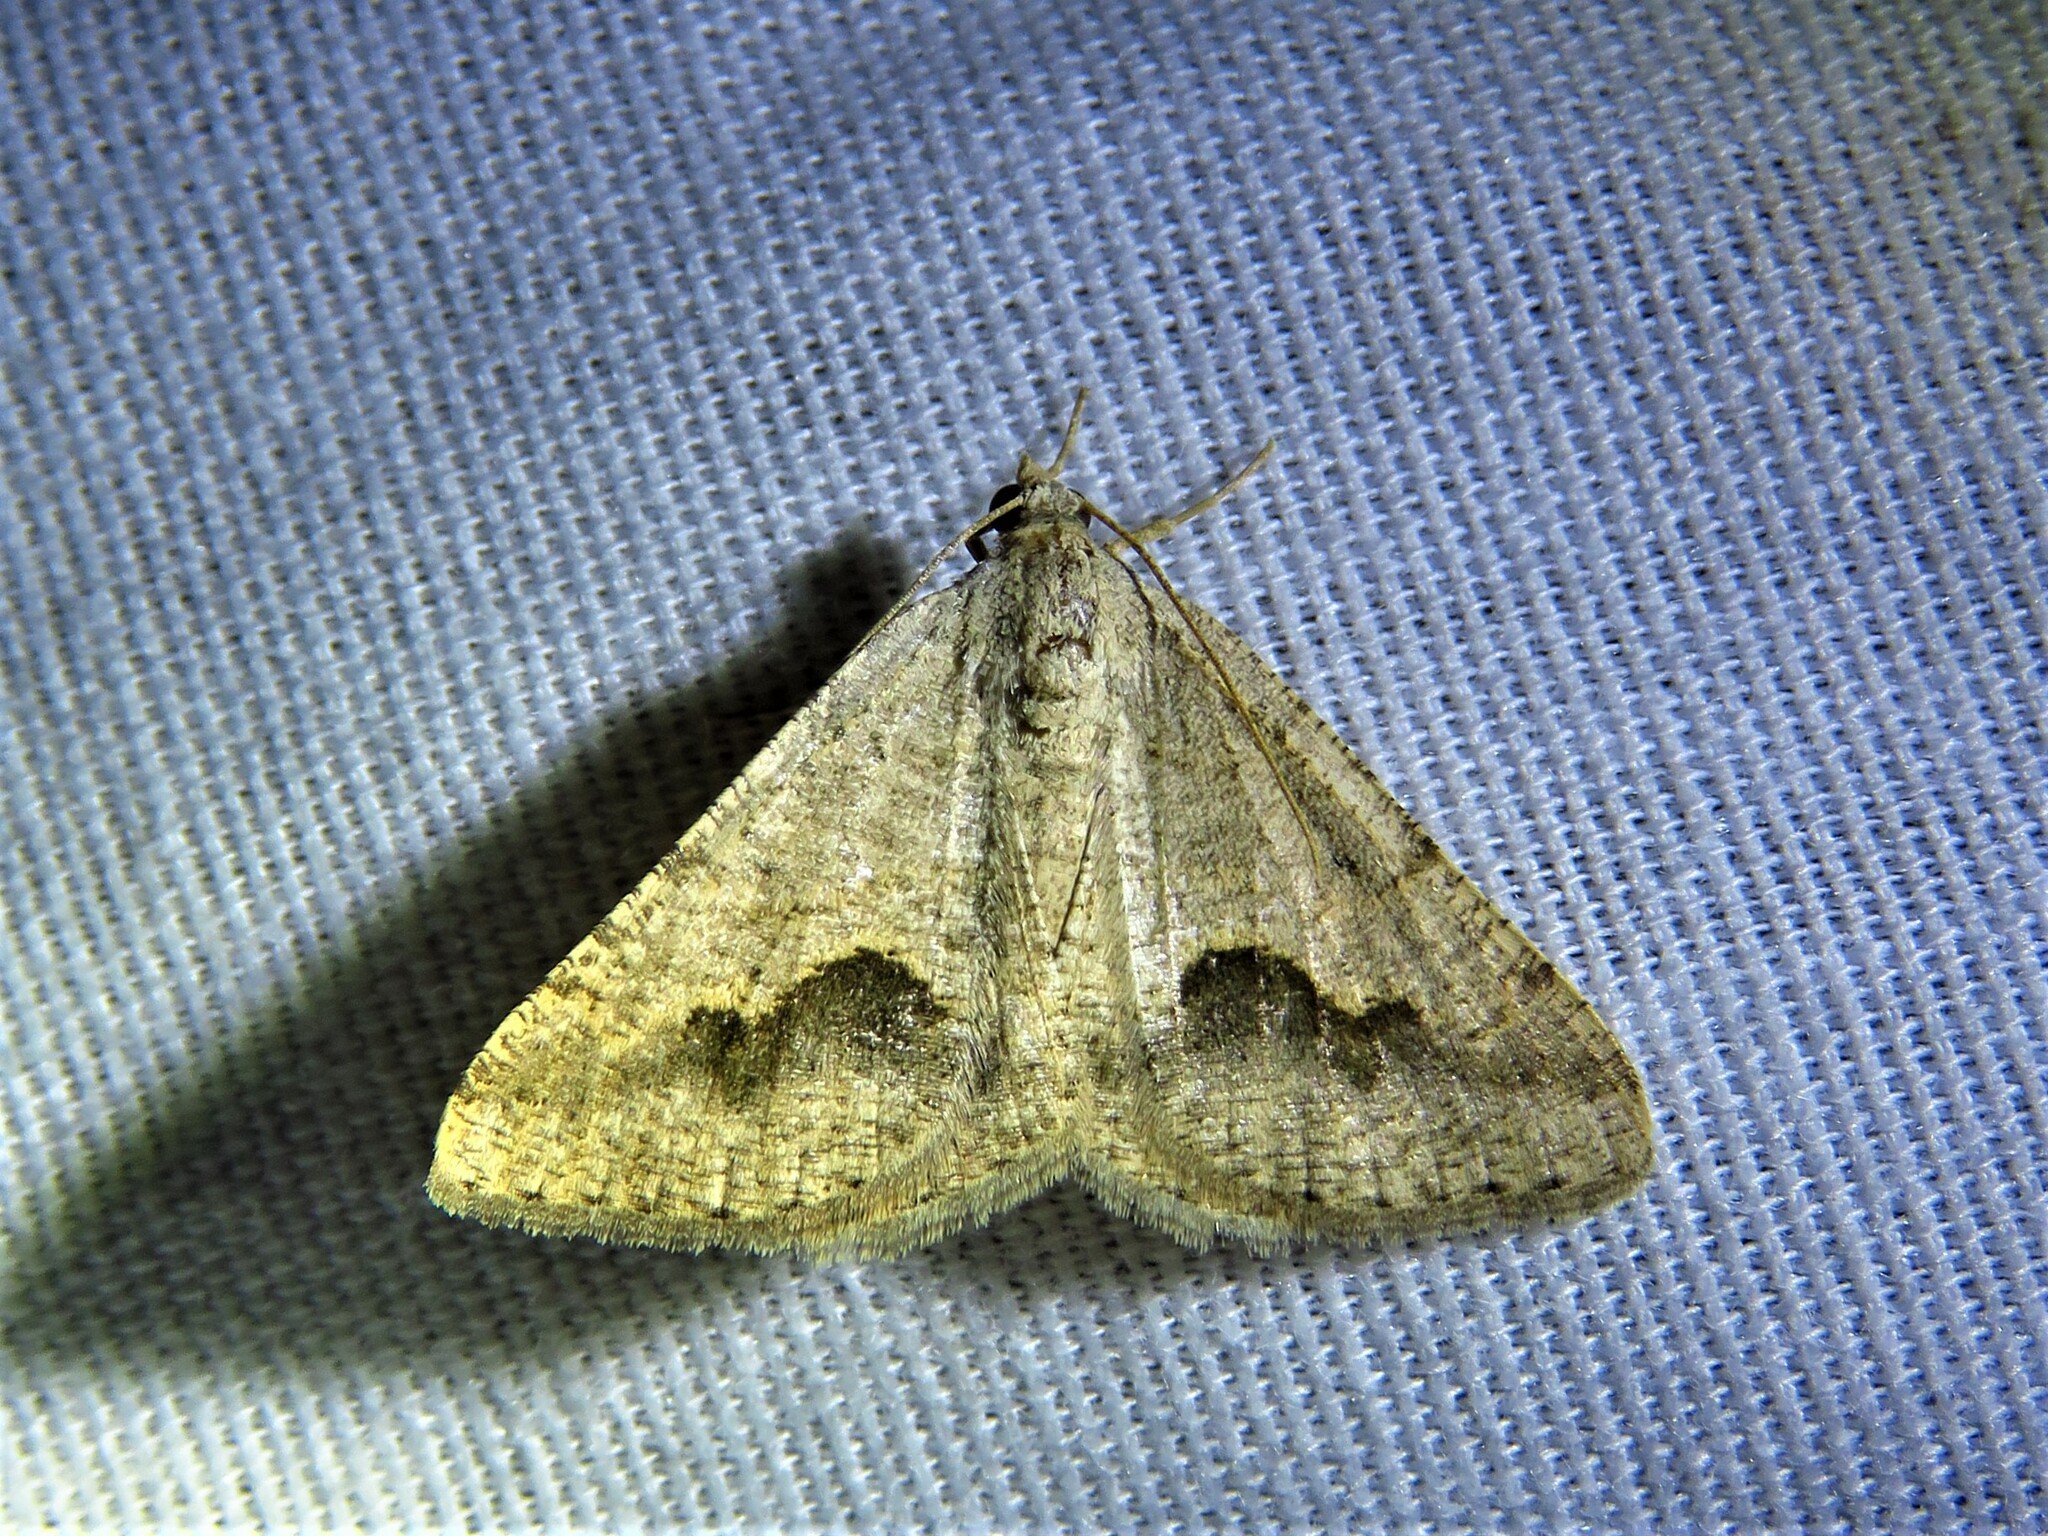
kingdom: Animalia
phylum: Arthropoda
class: Insecta
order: Lepidoptera
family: Geometridae
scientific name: Geometridae
